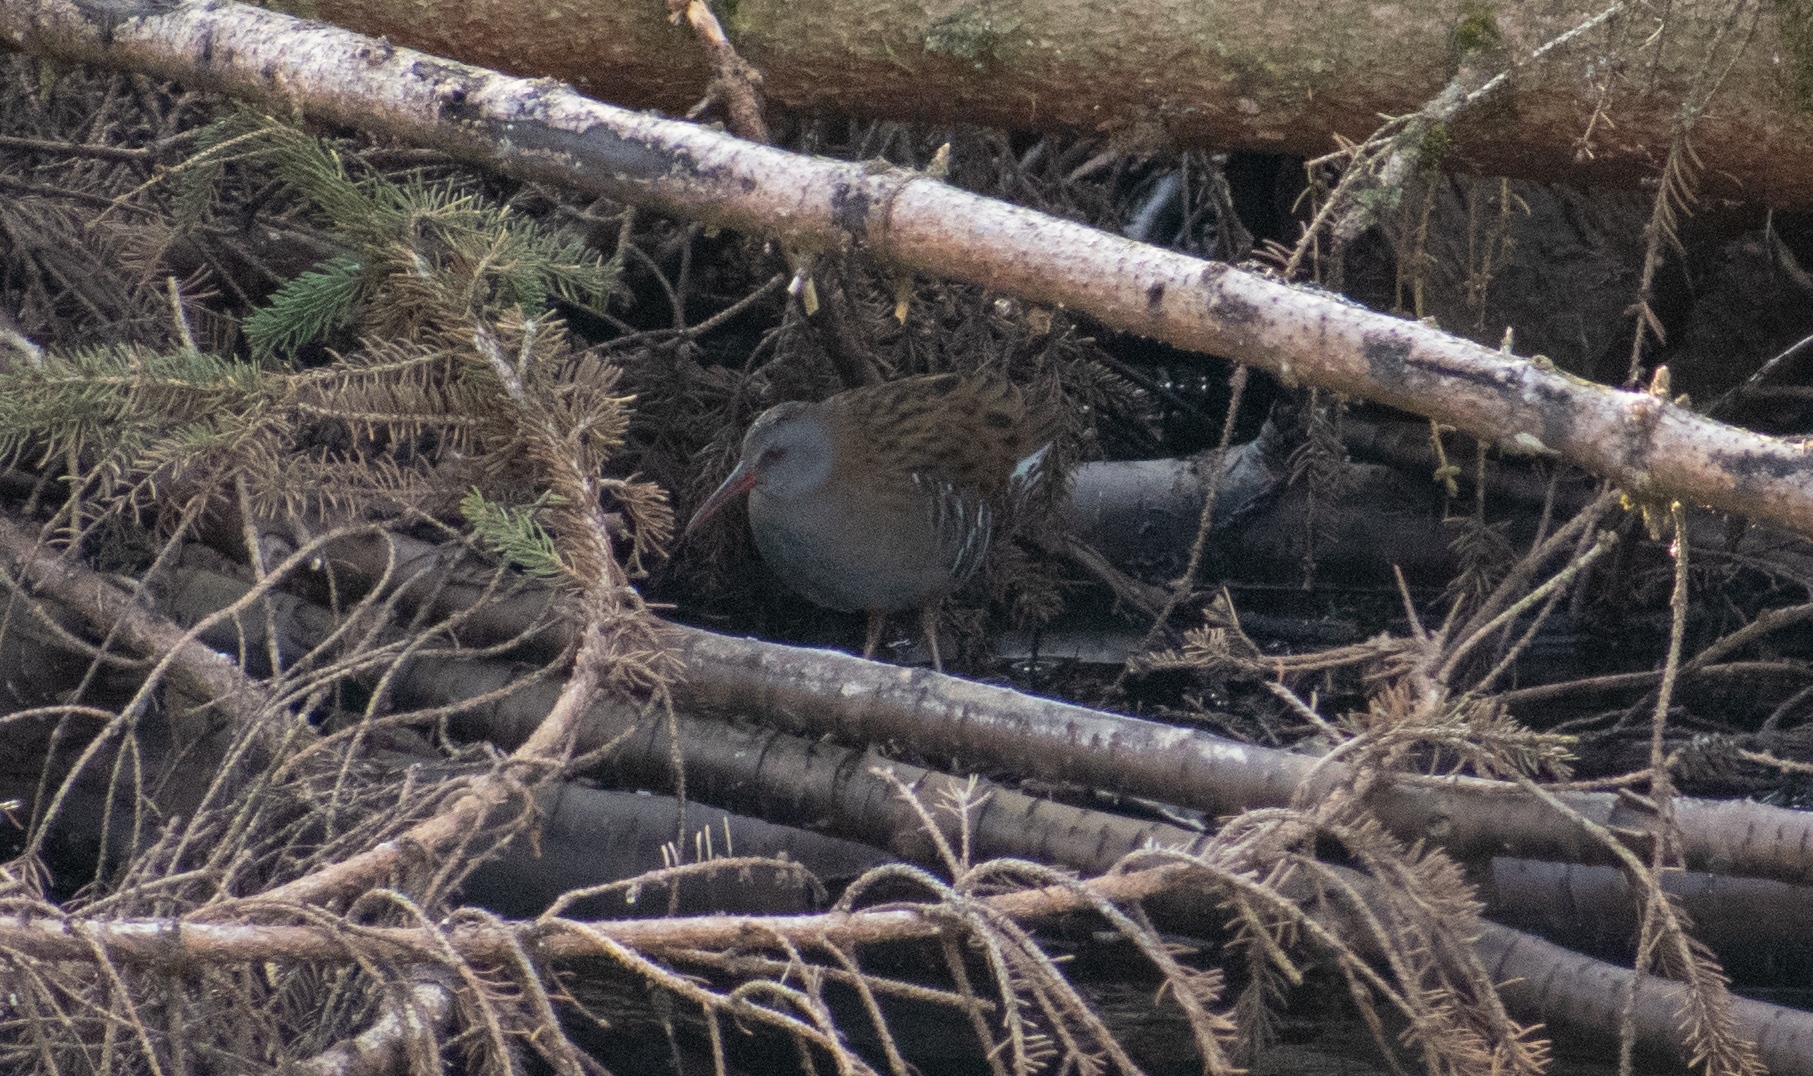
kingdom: Animalia
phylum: Chordata
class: Aves
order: Gruiformes
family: Rallidae
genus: Rallus
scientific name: Rallus aquaticus
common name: Water rail
